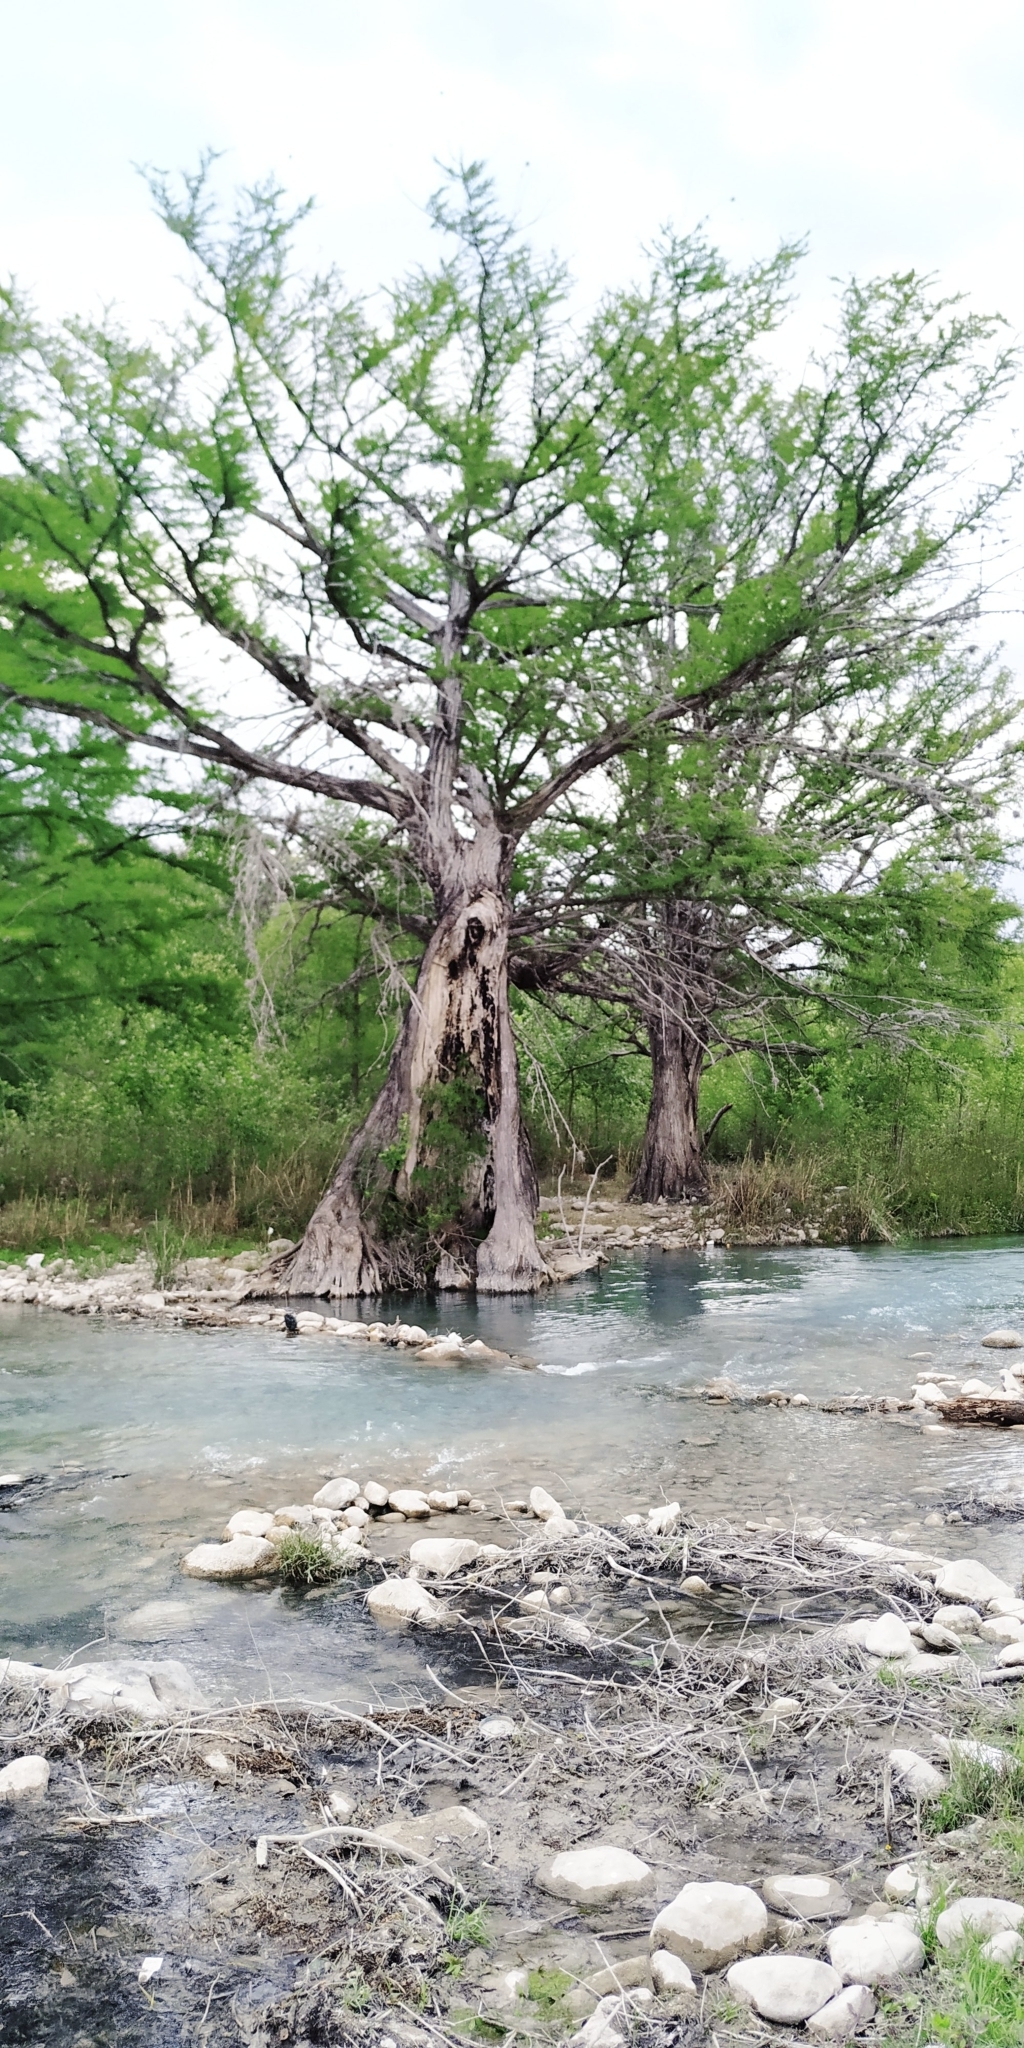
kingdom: Plantae
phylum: Tracheophyta
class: Pinopsida
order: Pinales
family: Cupressaceae
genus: Taxodium
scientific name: Taxodium mucronatum
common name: Montezume bald cypress
